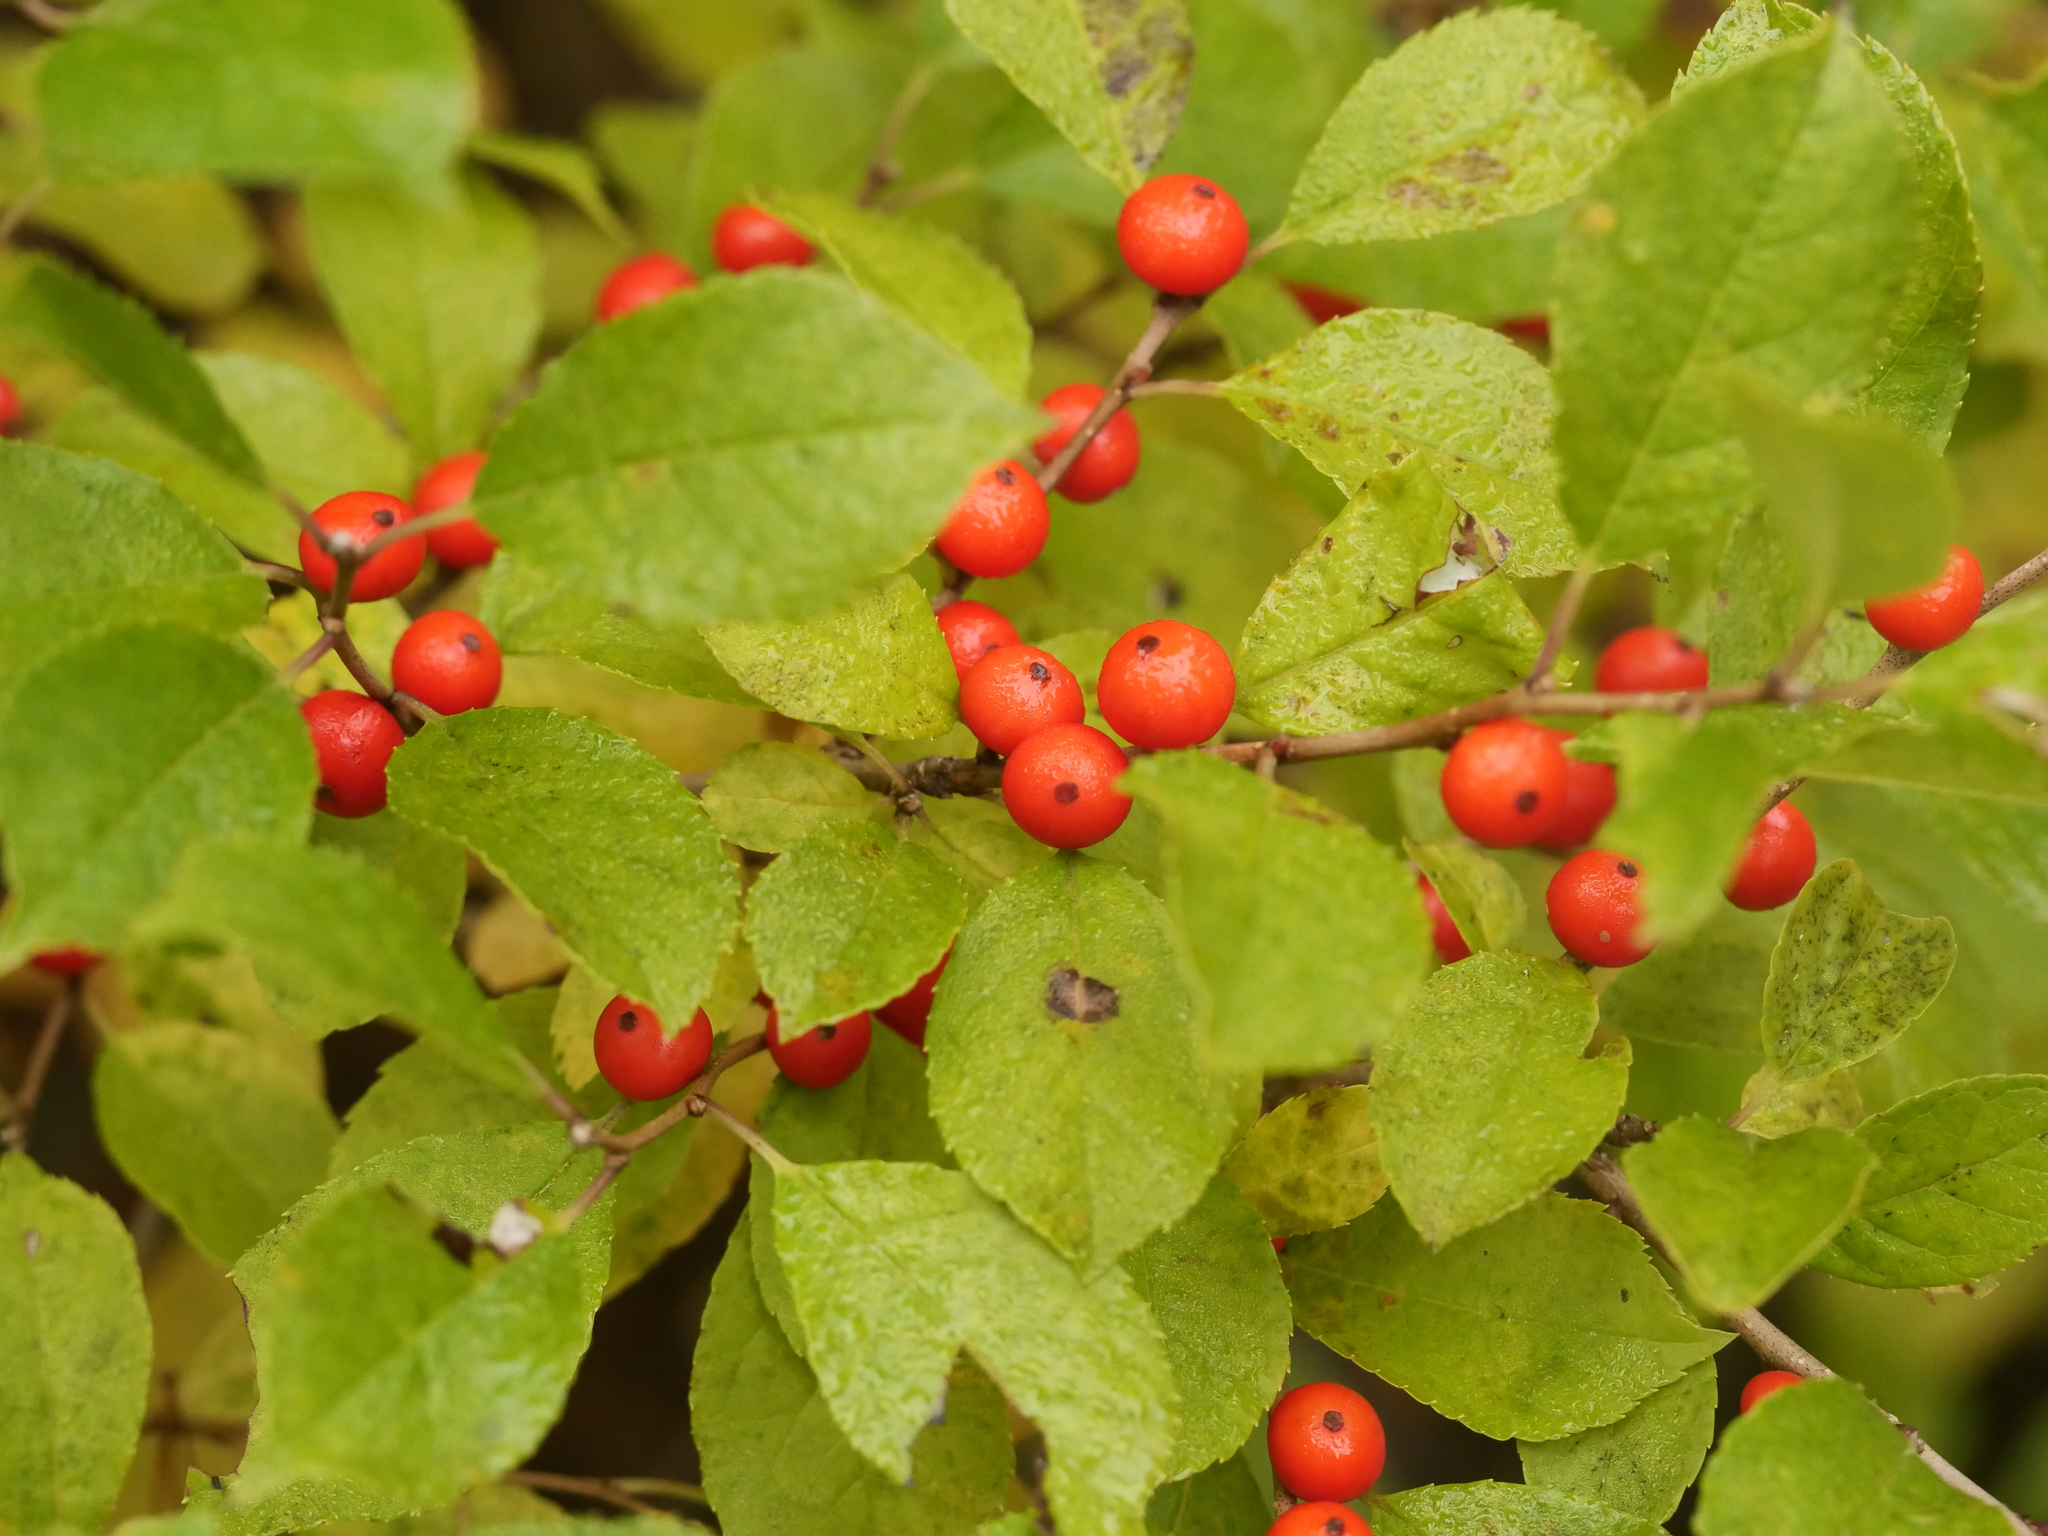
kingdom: Plantae
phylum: Tracheophyta
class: Magnoliopsida
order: Aquifoliales
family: Aquifoliaceae
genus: Ilex
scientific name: Ilex verticillata
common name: Virginia winterberry
